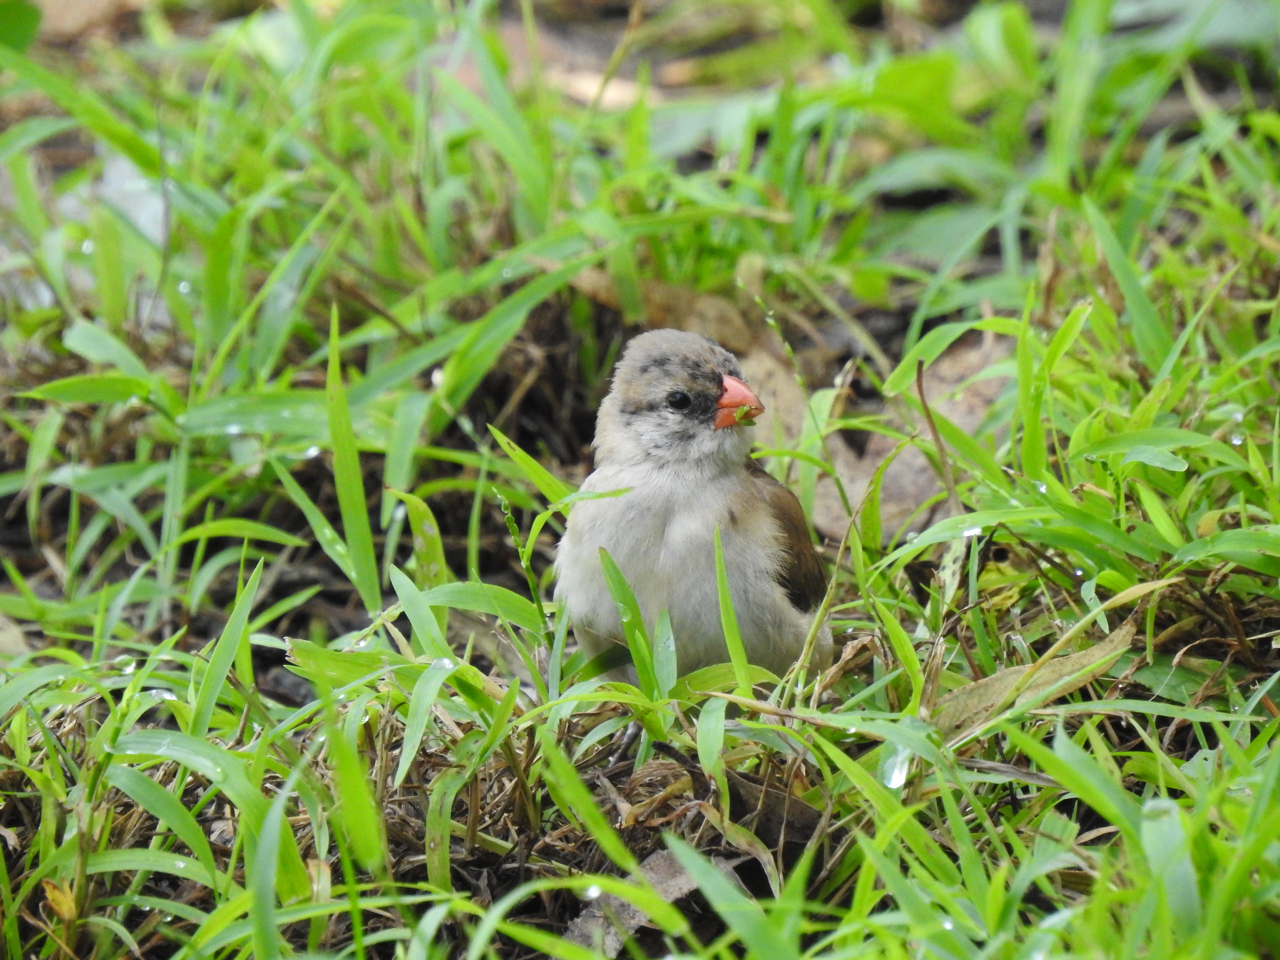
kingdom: Animalia
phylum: Chordata
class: Aves
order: Passeriformes
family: Viduidae
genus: Vidua
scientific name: Vidua macroura
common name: Pin-tailed whydah
